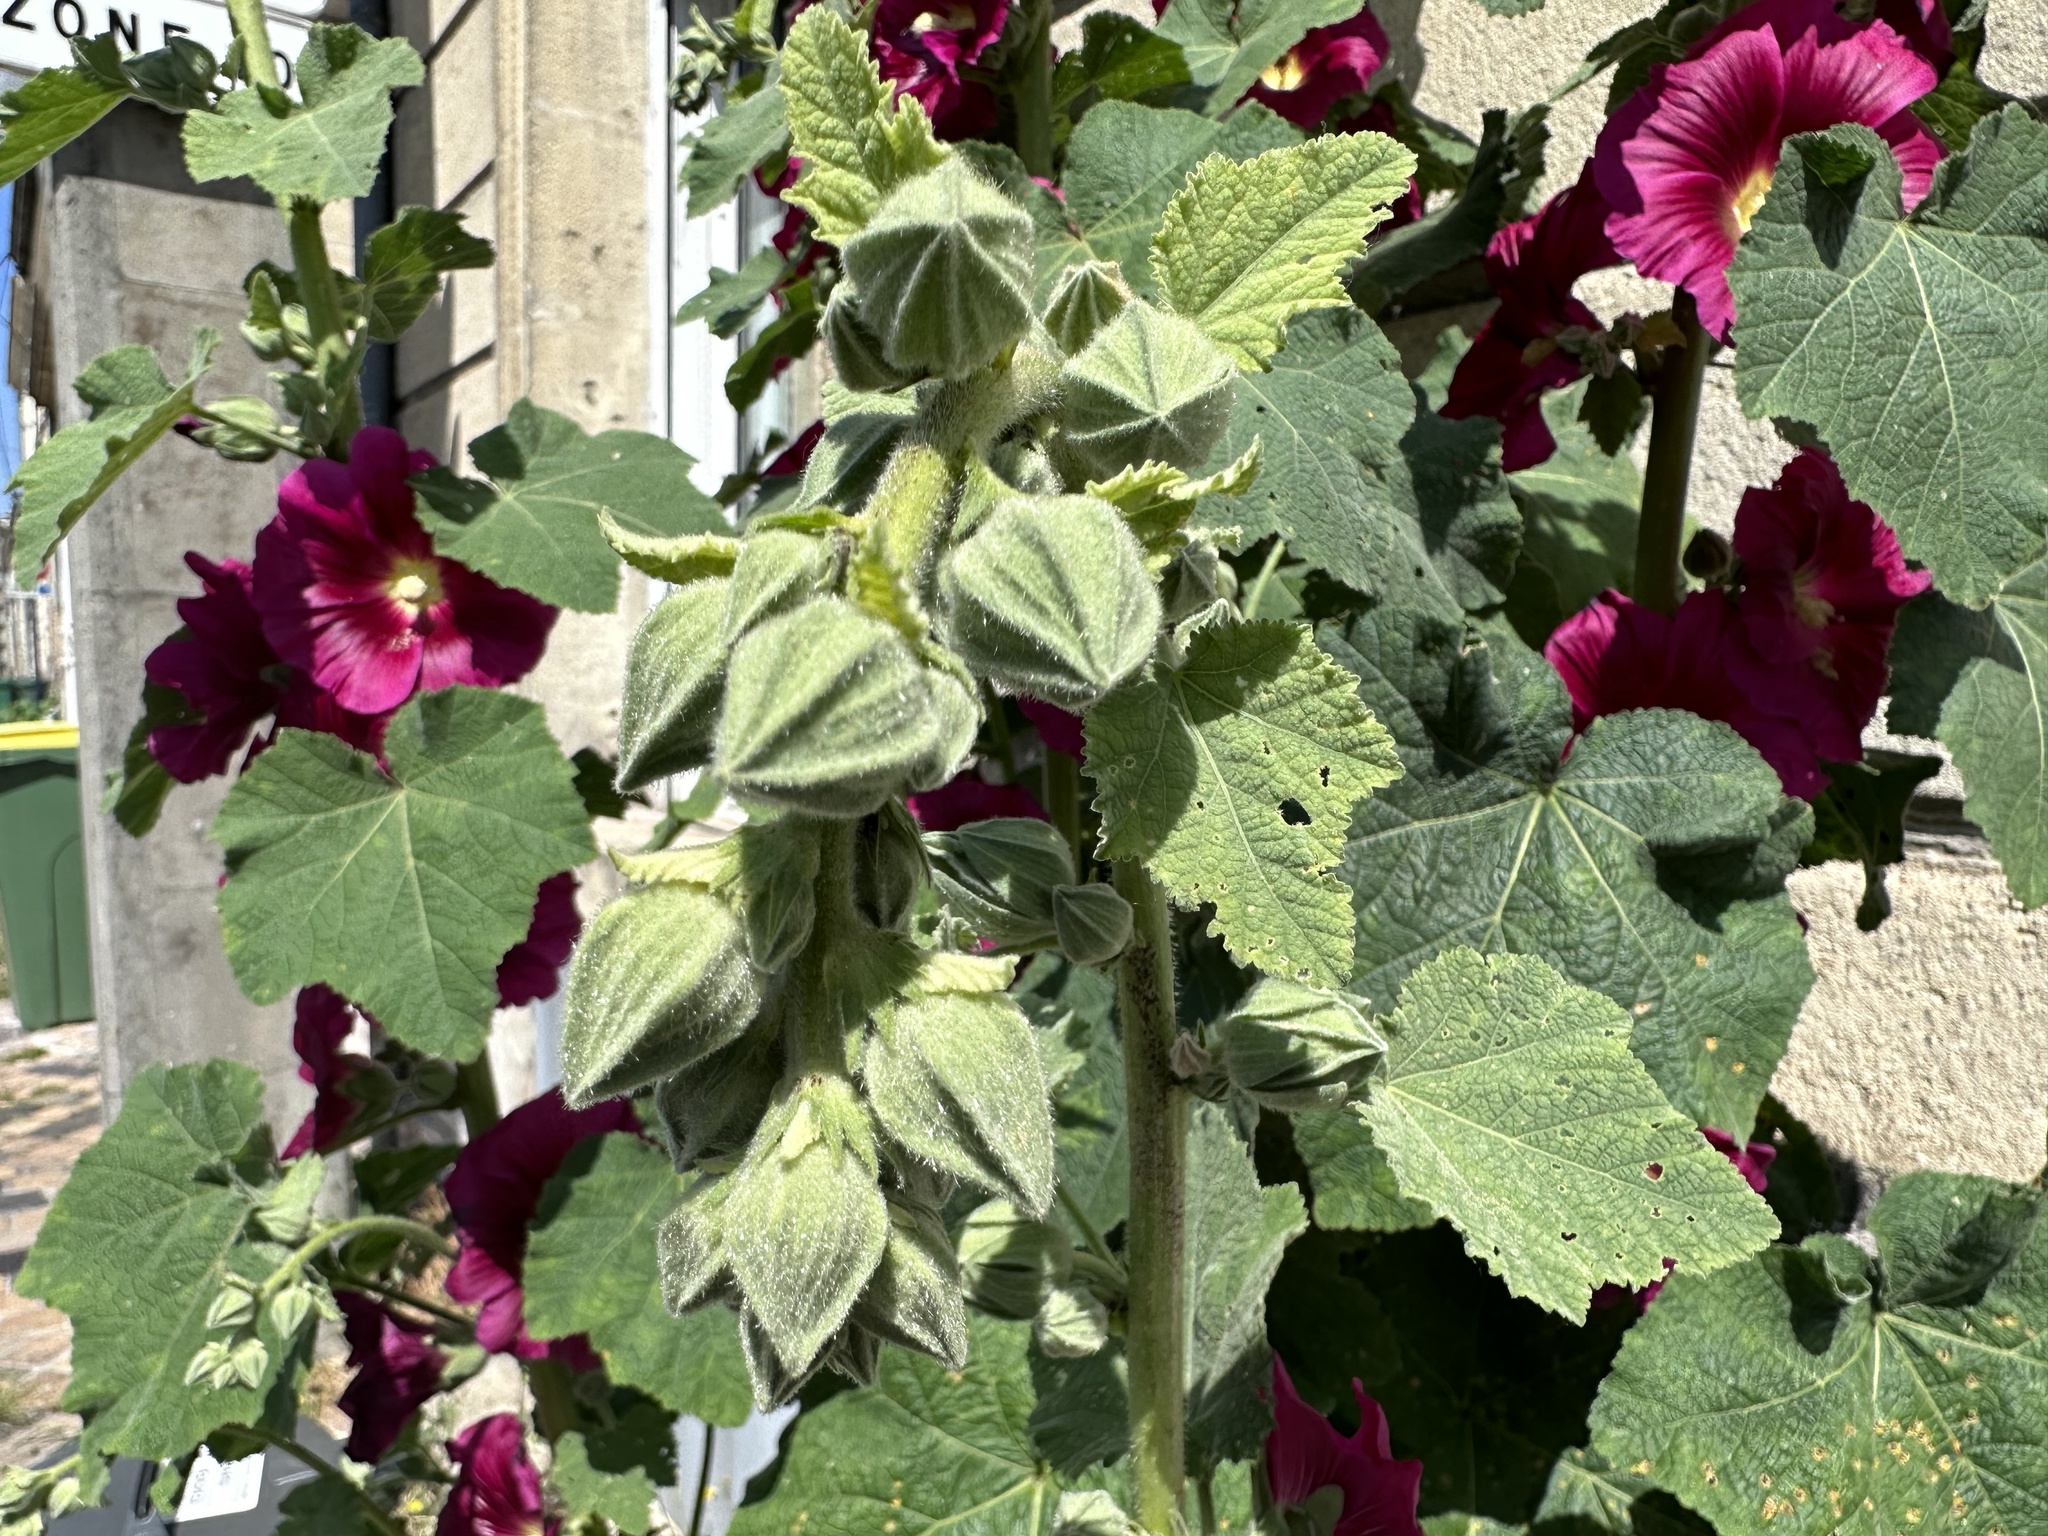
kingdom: Plantae
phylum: Tracheophyta
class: Magnoliopsida
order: Malvales
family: Malvaceae
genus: Alcea
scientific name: Alcea rosea
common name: Hollyhock
